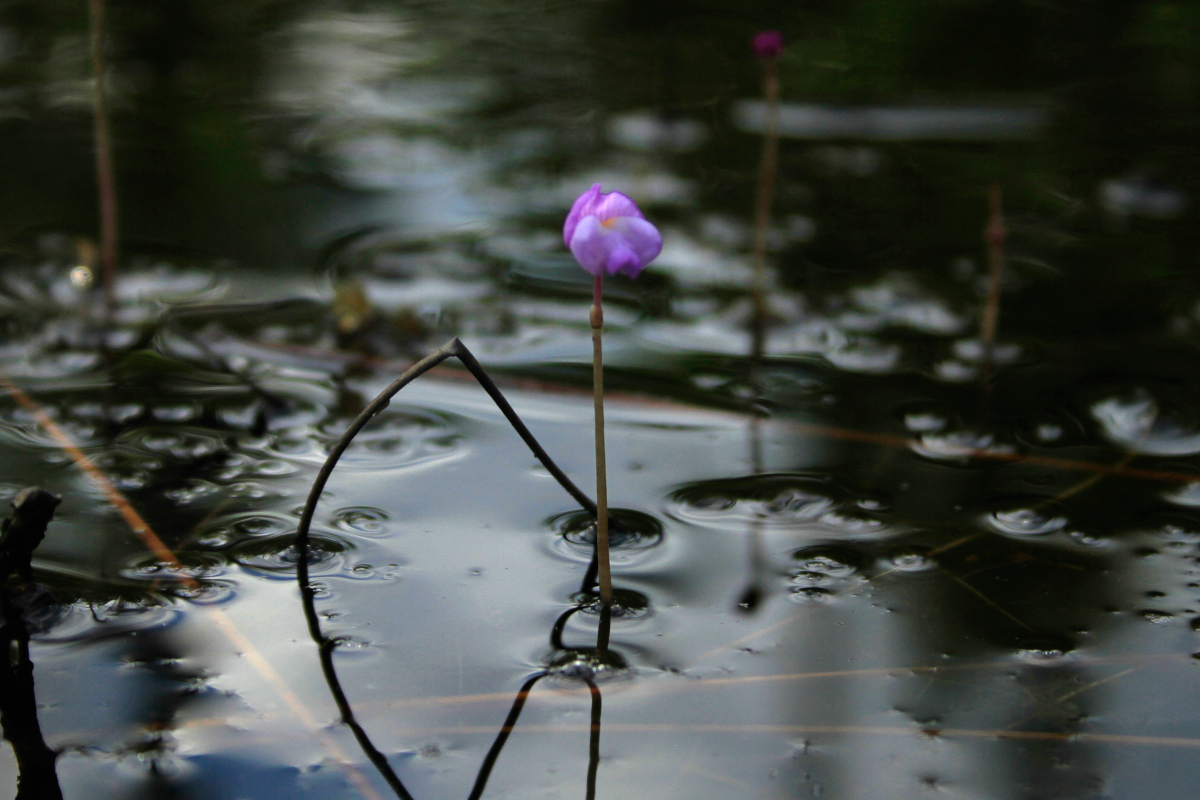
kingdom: Plantae
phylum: Tracheophyta
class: Magnoliopsida
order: Lamiales
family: Lentibulariaceae
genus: Utricularia
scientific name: Utricularia purpurea
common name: Eastern purple bladderwort
